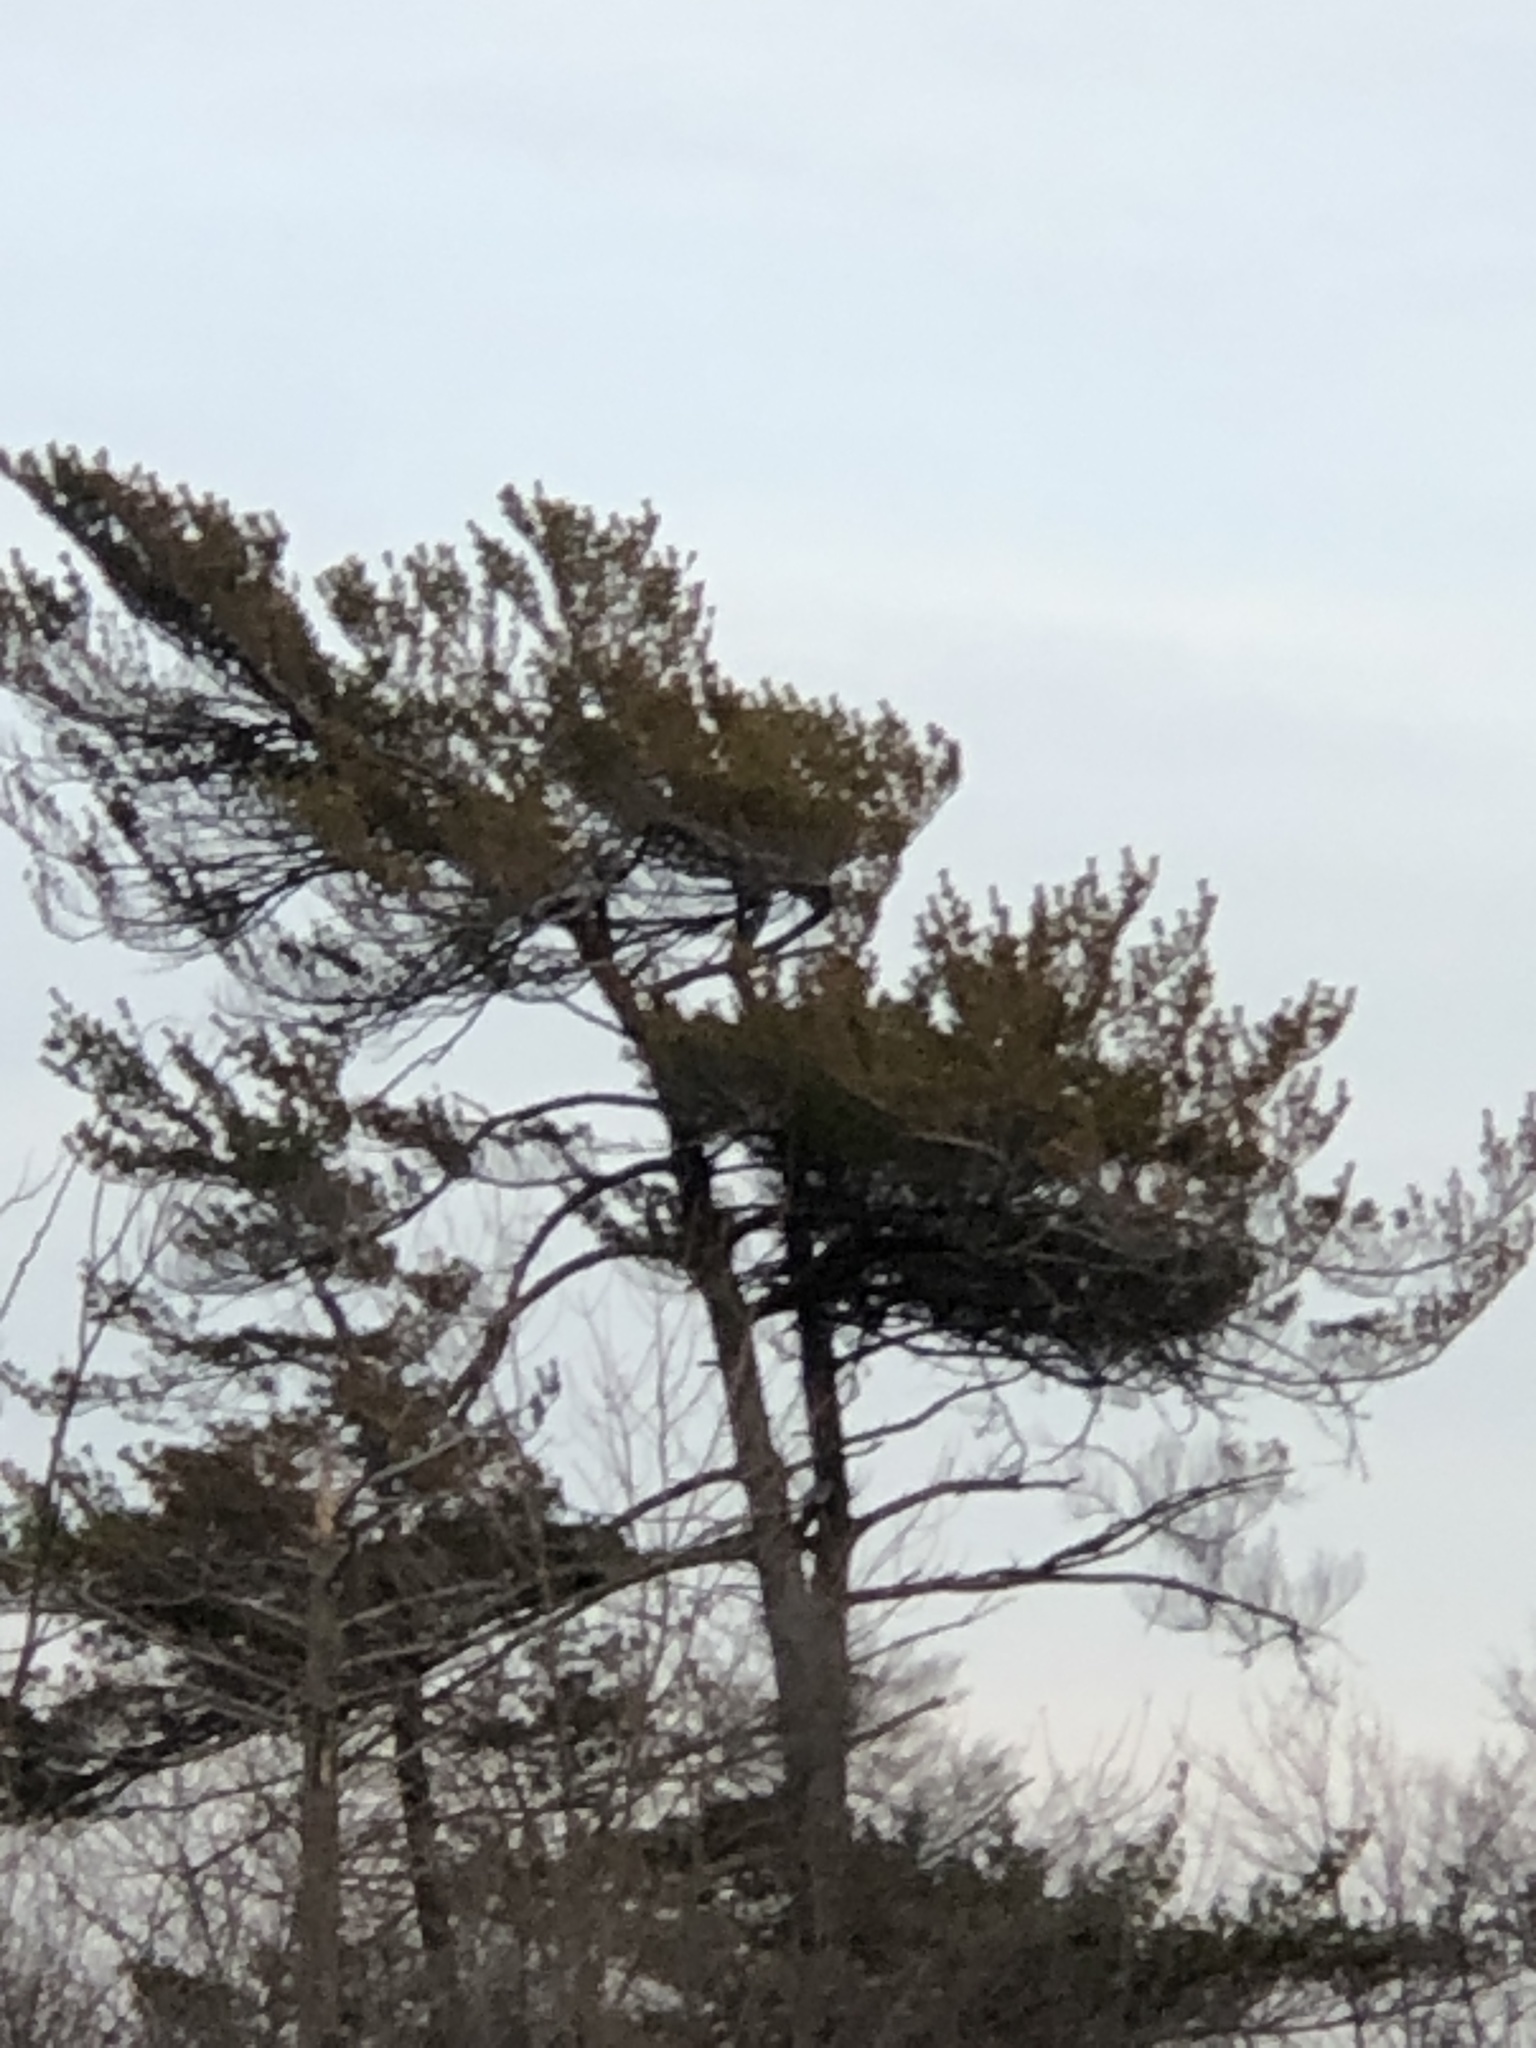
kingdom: Plantae
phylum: Tracheophyta
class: Pinopsida
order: Pinales
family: Pinaceae
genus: Pinus
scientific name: Pinus strobus
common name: Weymouth pine
